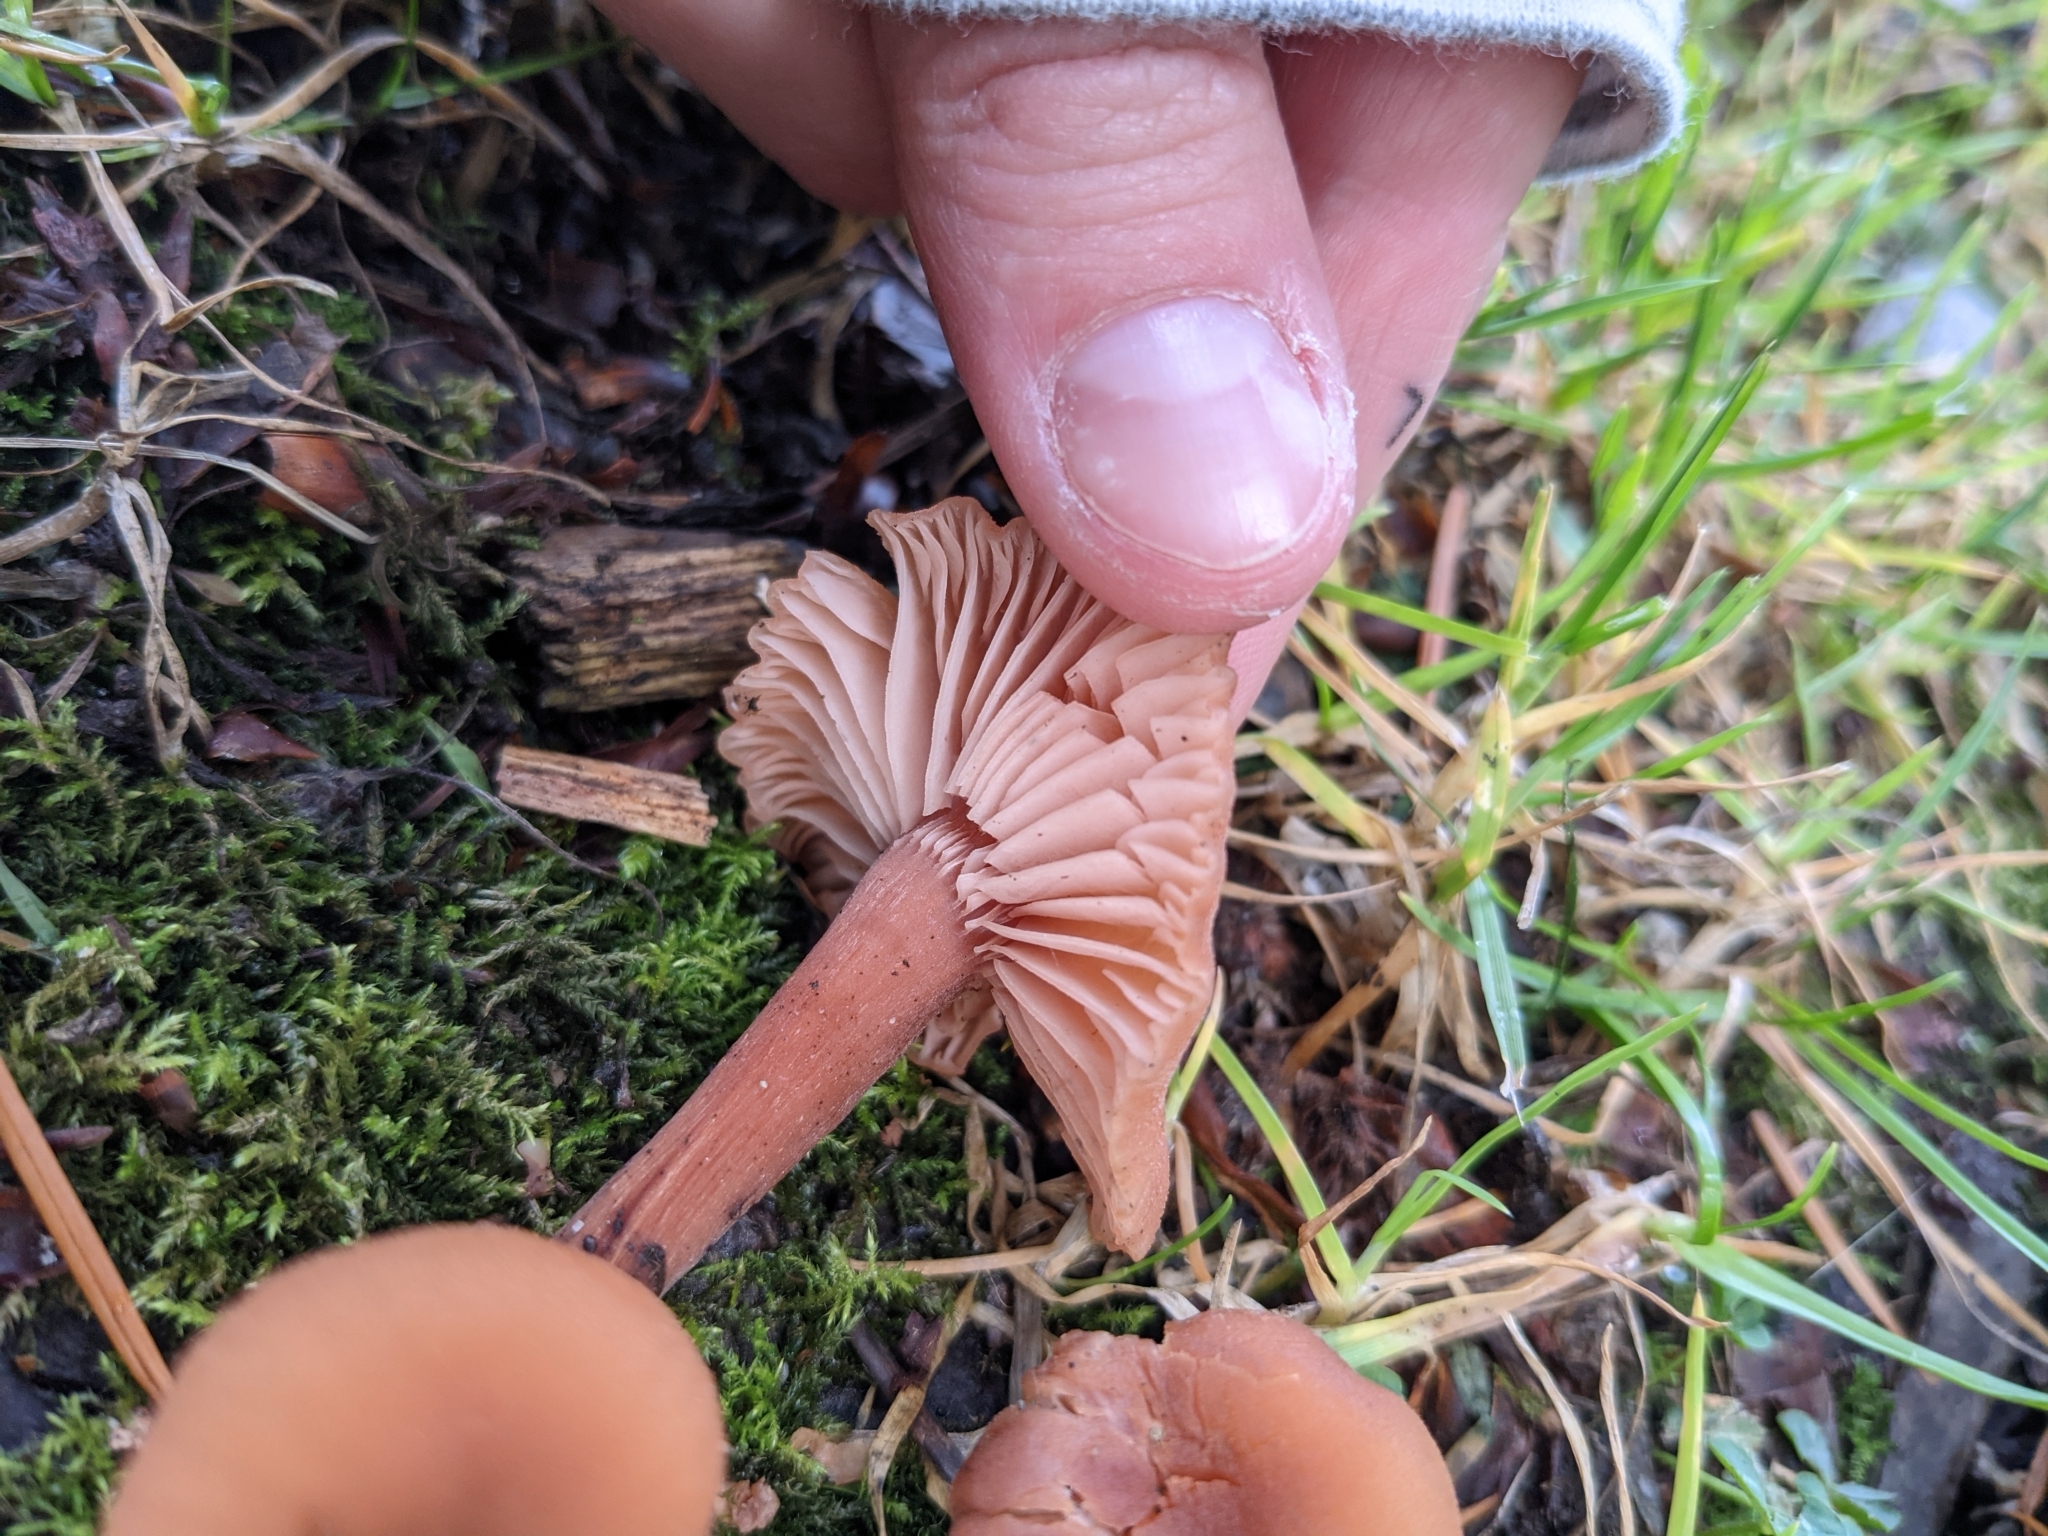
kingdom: Fungi
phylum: Basidiomycota
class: Agaricomycetes
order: Agaricales
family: Hydnangiaceae
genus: Laccaria
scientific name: Laccaria laccata
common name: Deceiver
